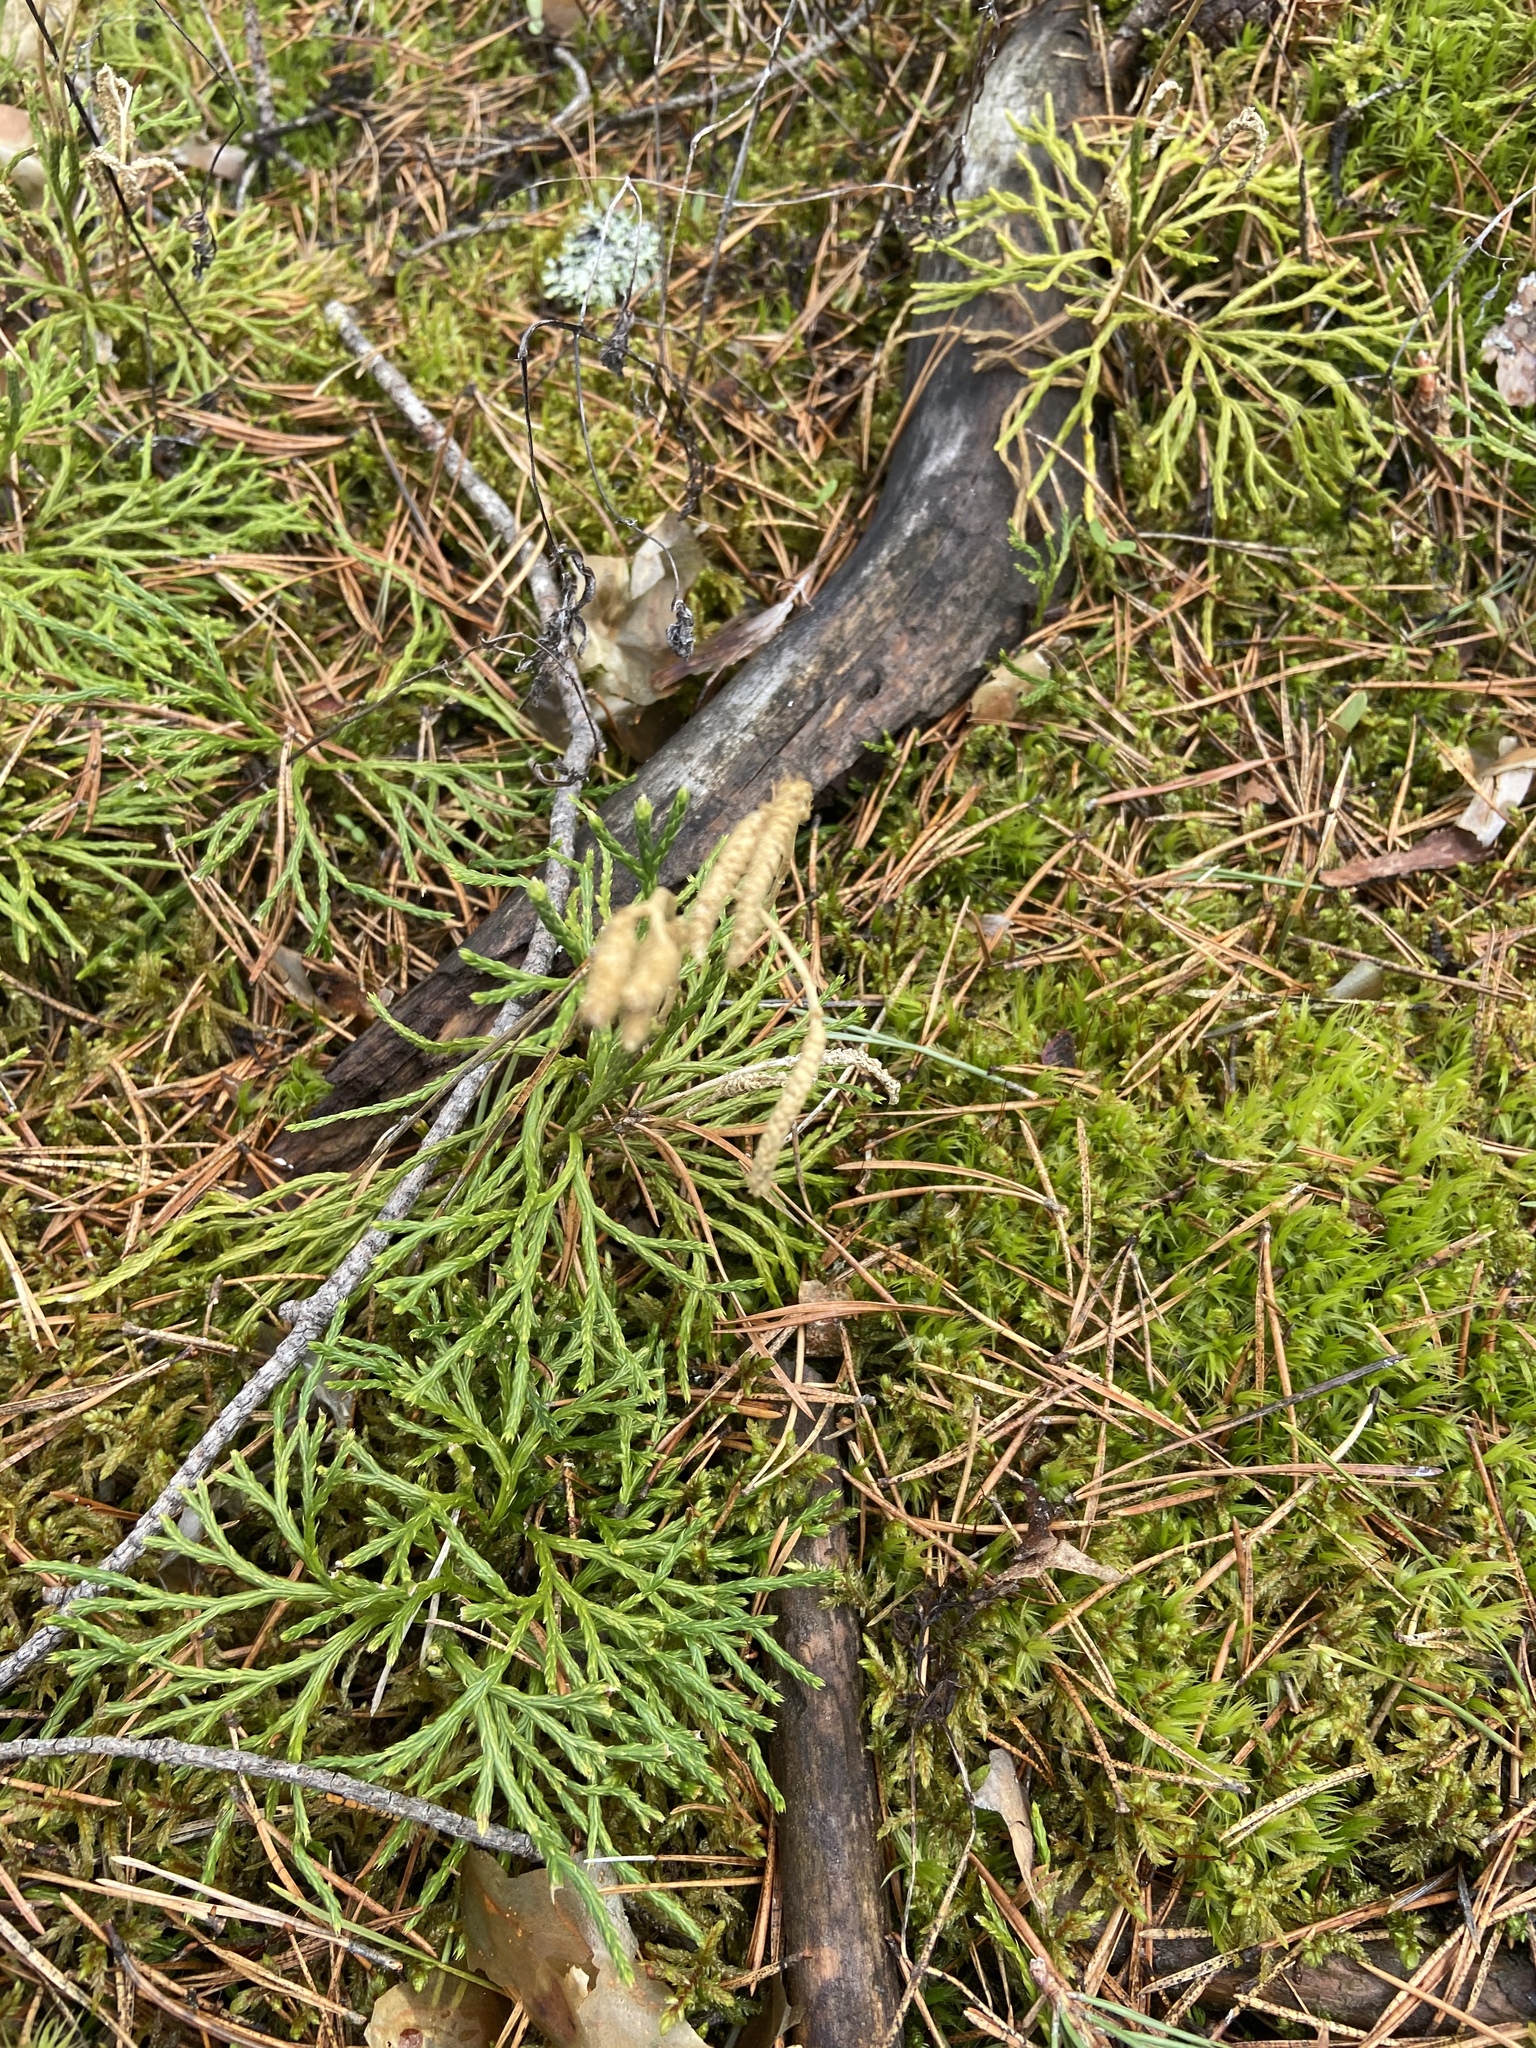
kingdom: Plantae
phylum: Tracheophyta
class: Lycopodiopsida
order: Lycopodiales
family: Lycopodiaceae
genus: Diphasiastrum
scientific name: Diphasiastrum complanatum
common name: Northern running-pine
